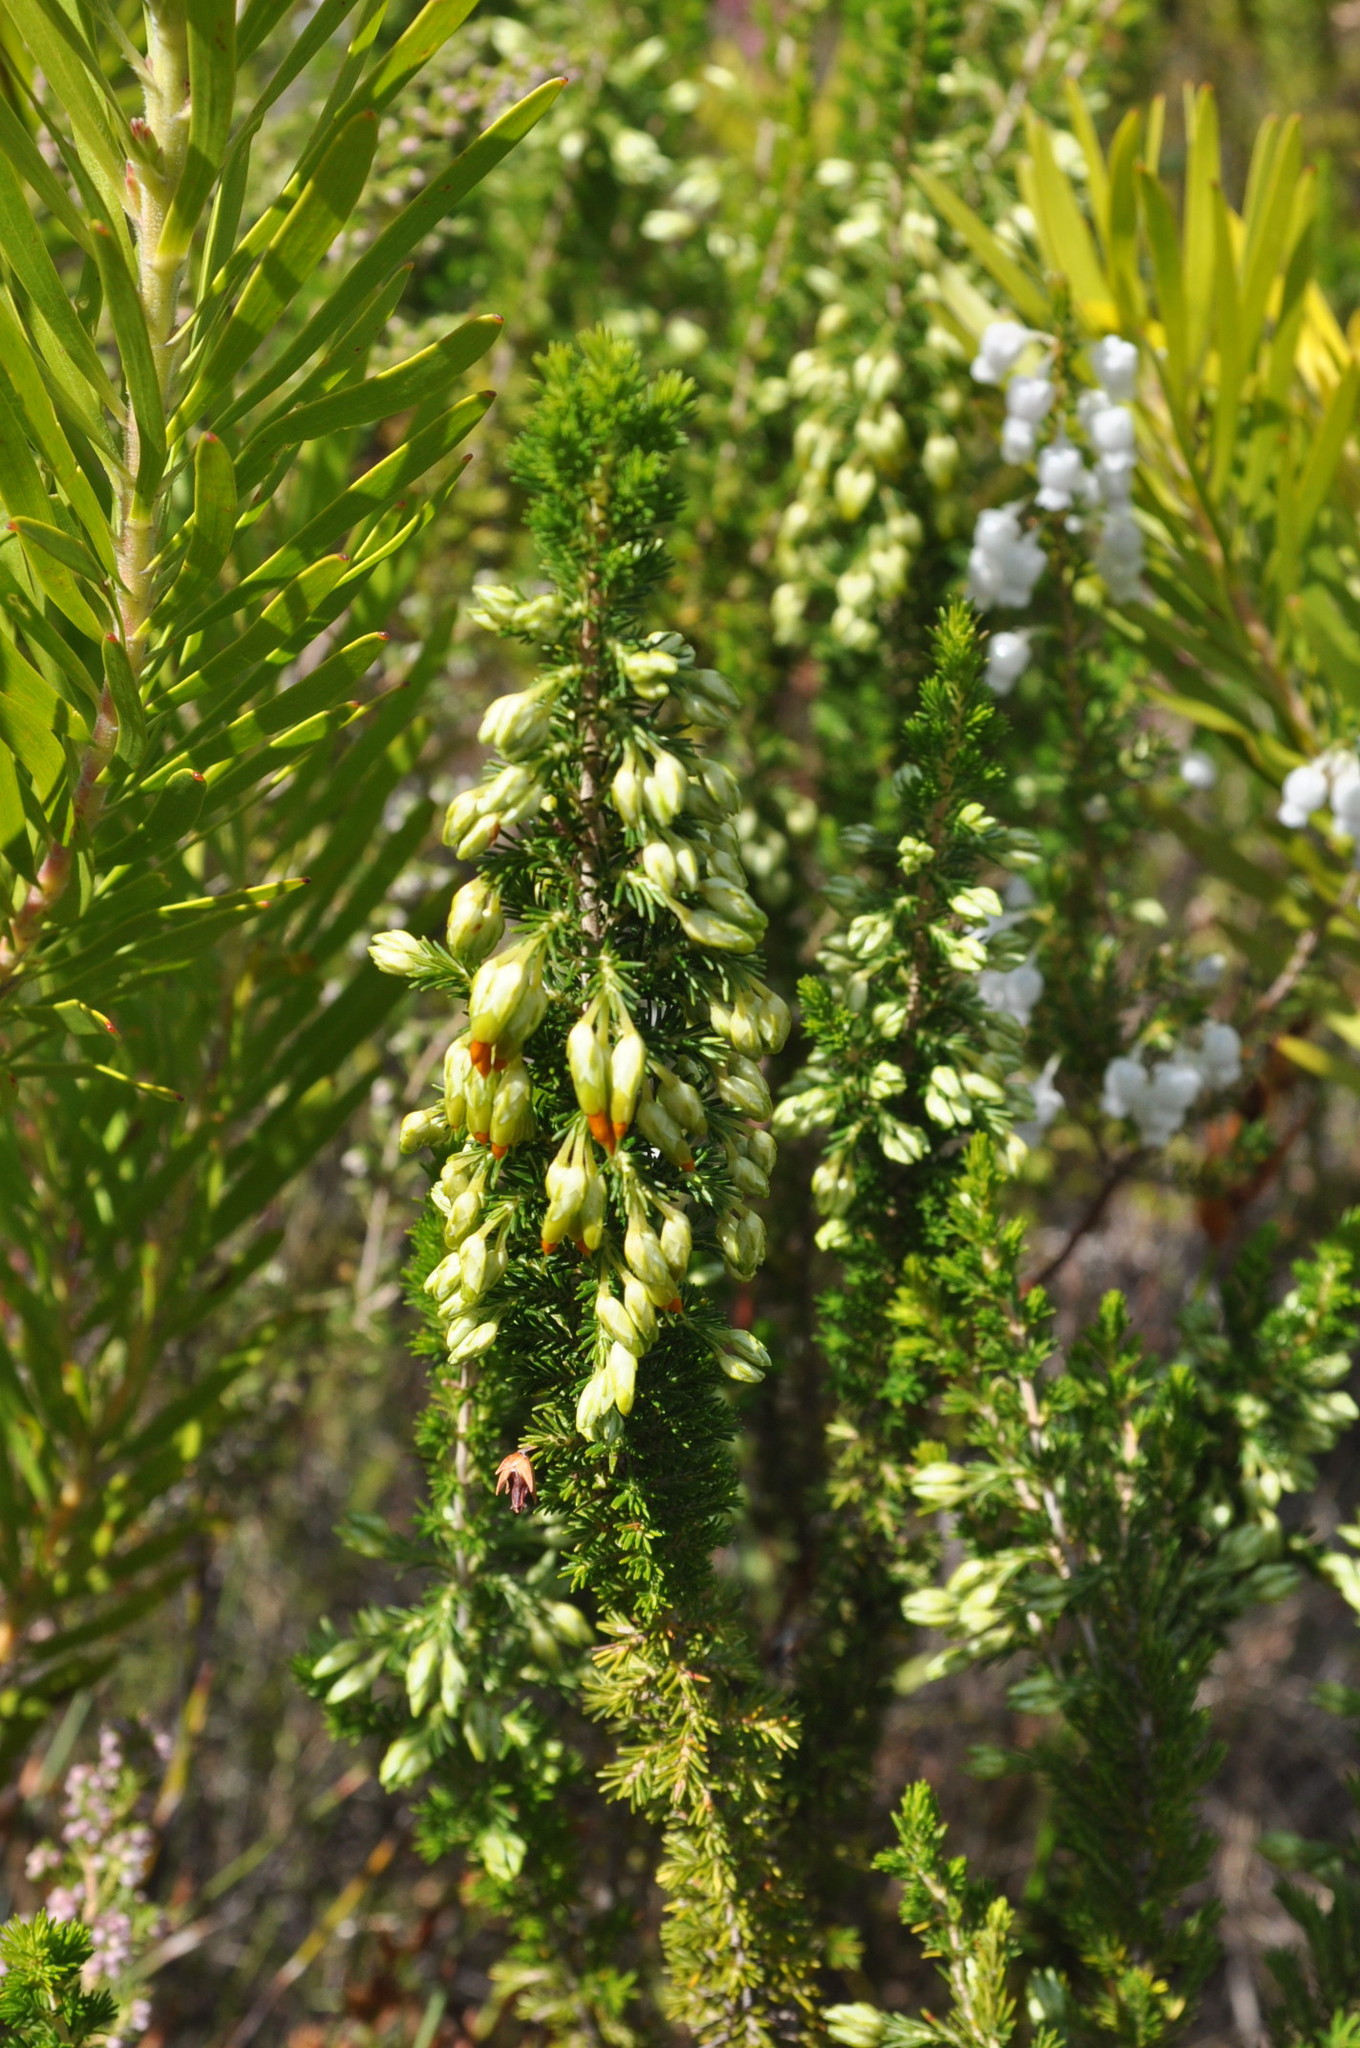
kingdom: Plantae
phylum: Tracheophyta
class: Magnoliopsida
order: Ericales
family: Ericaceae
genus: Erica
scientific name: Erica intermedia
